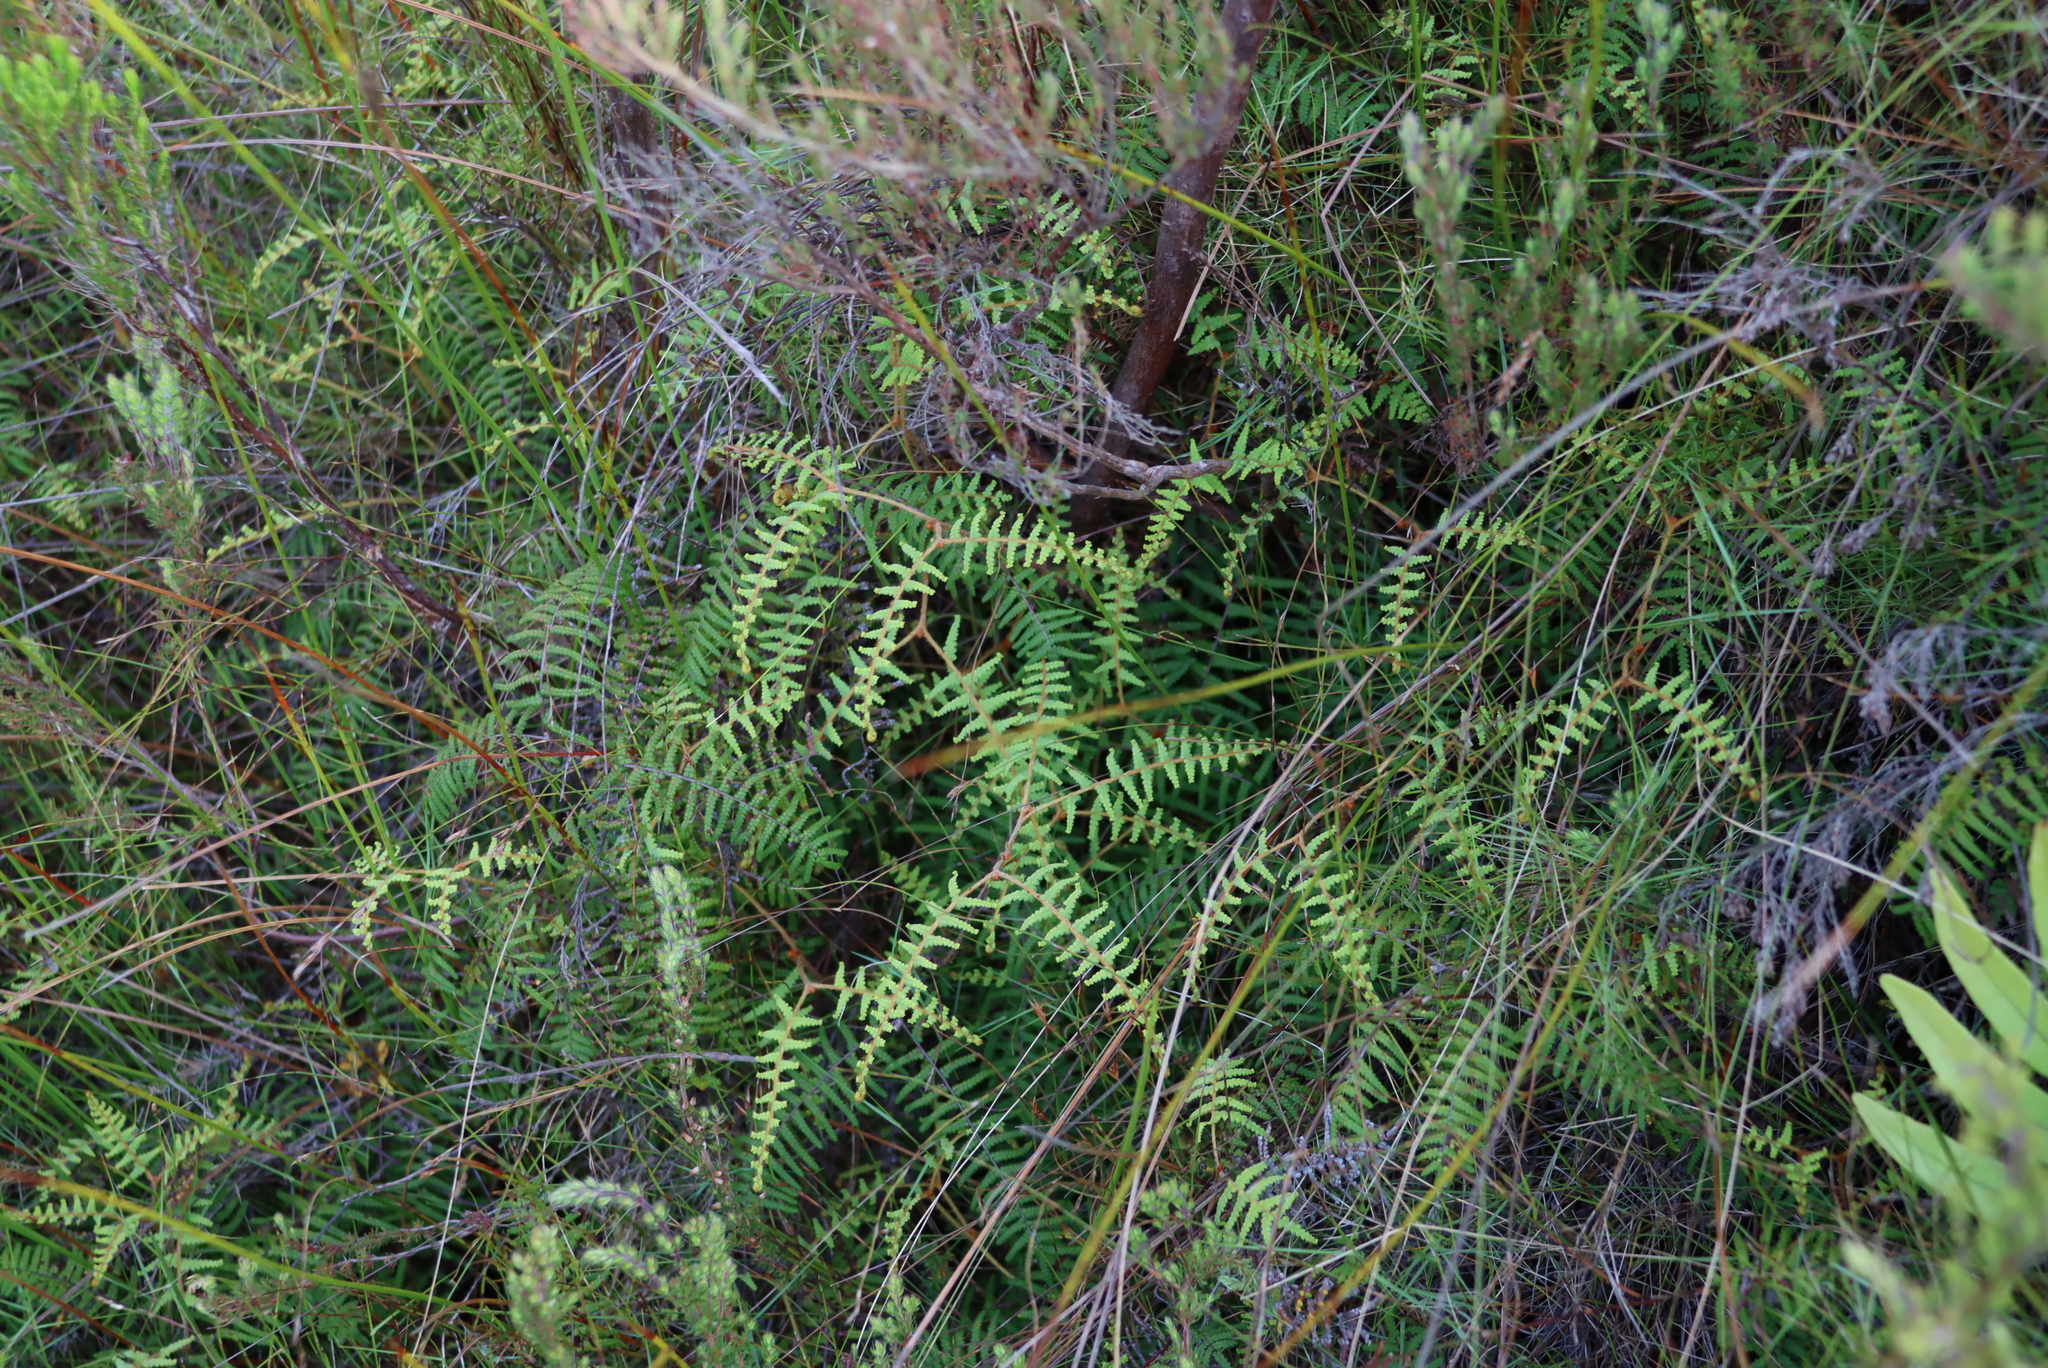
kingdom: Plantae
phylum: Tracheophyta
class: Polypodiopsida
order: Gleicheniales
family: Gleicheniaceae
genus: Gleichenia
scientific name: Gleichenia polypodioides
